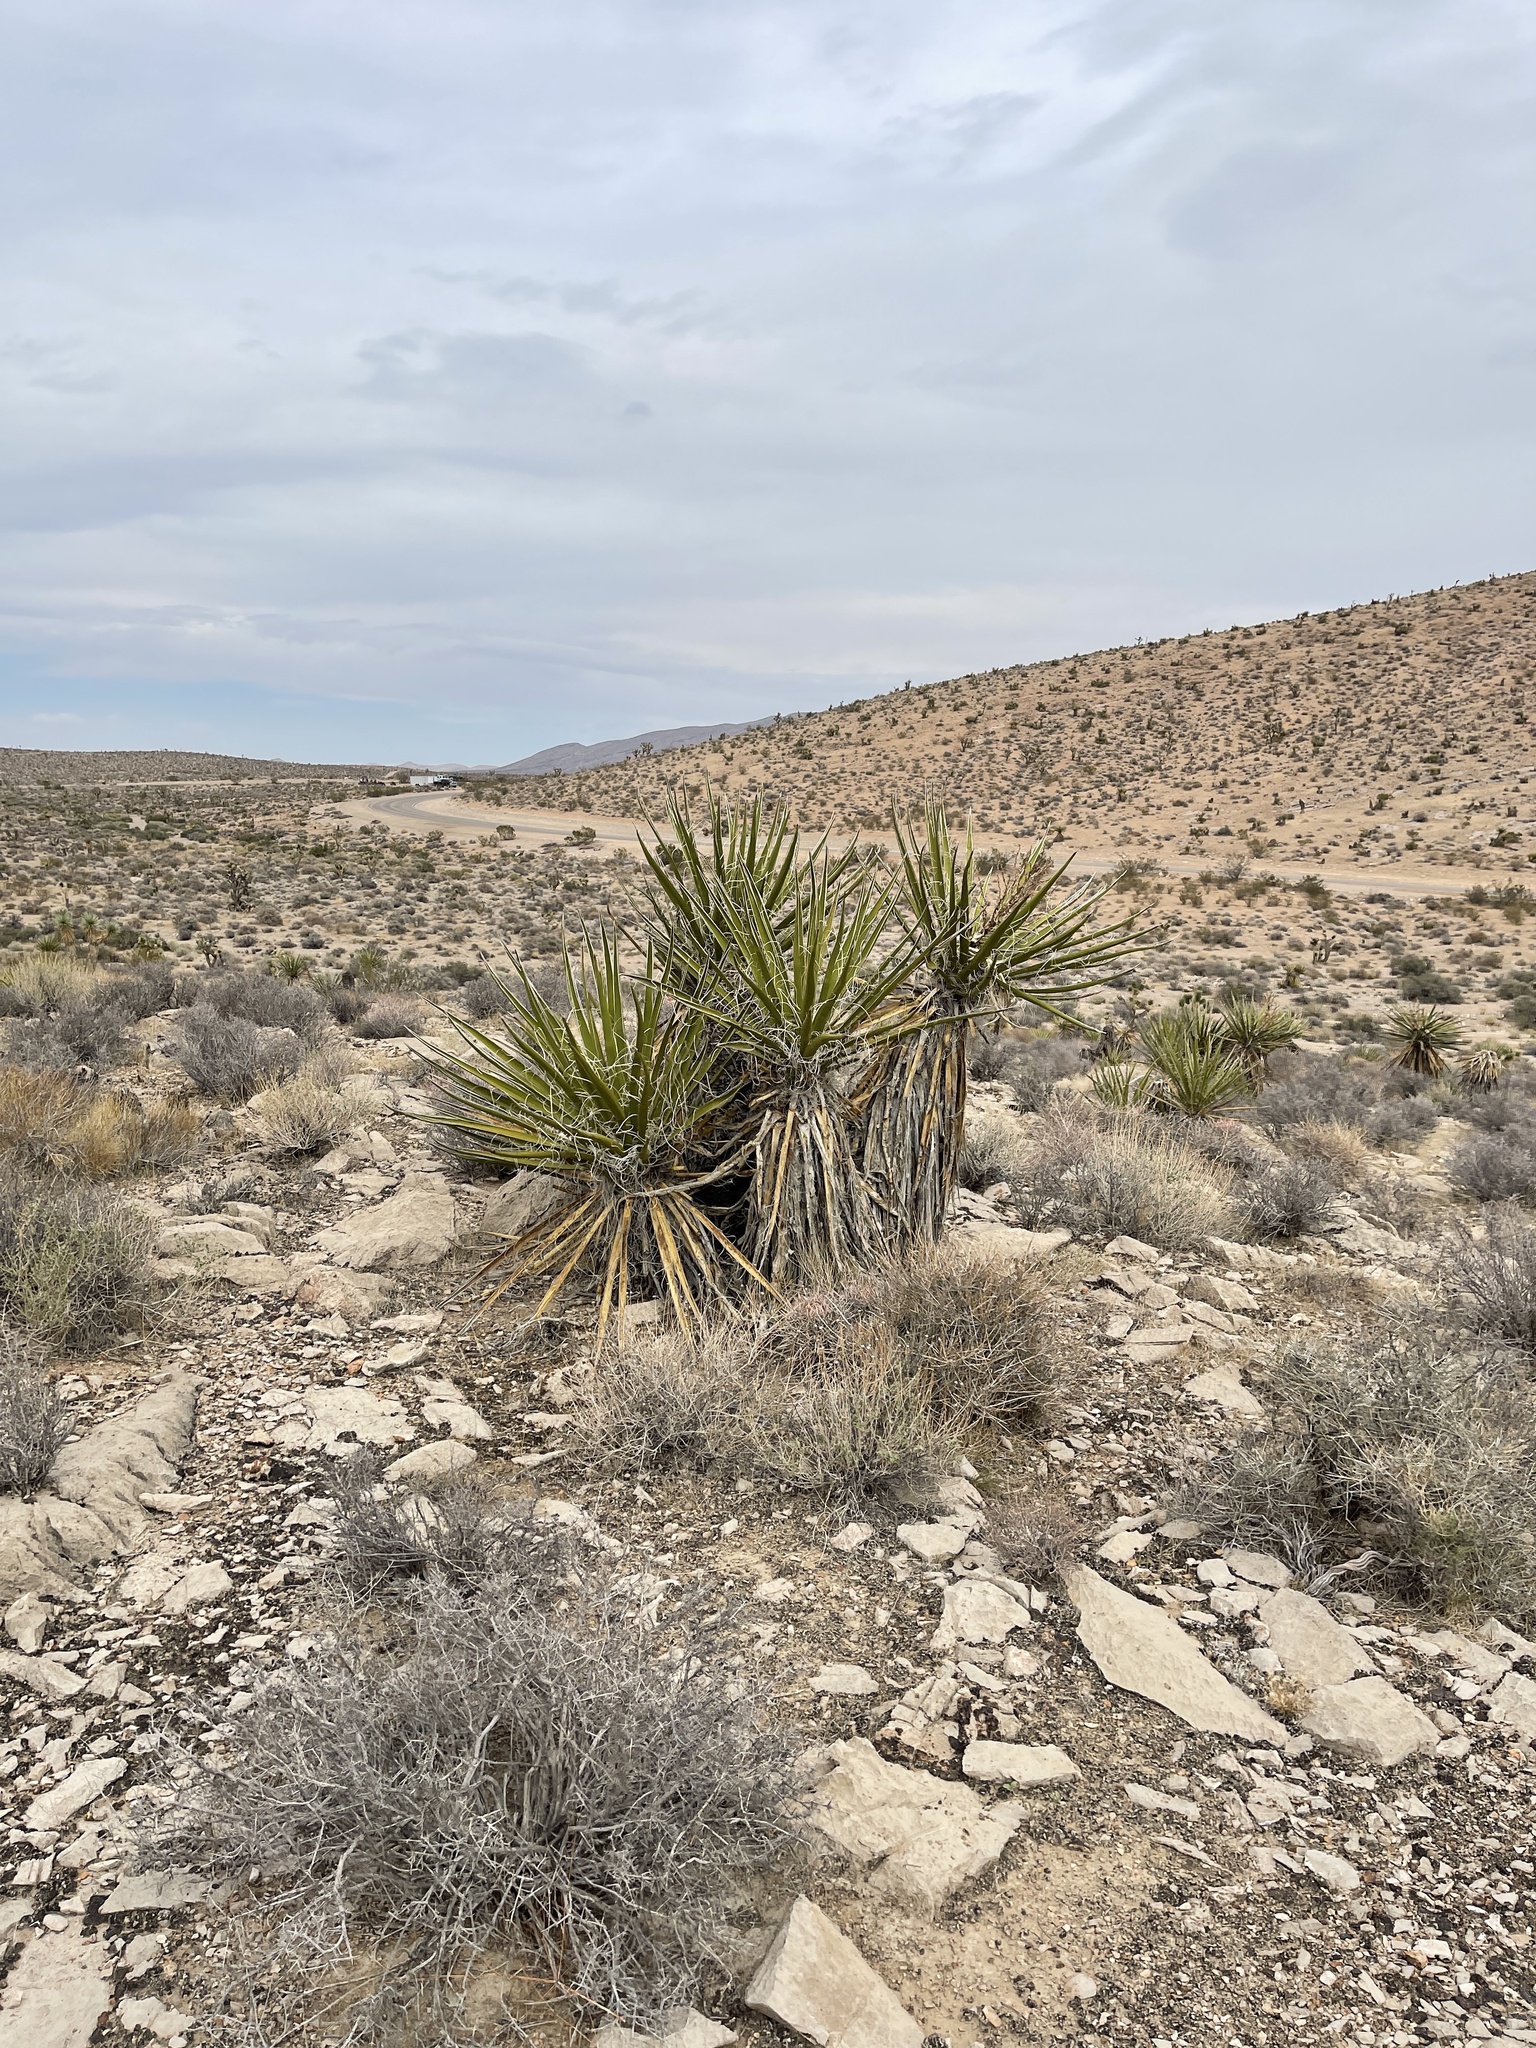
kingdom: Plantae
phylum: Tracheophyta
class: Liliopsida
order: Asparagales
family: Asparagaceae
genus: Yucca
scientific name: Yucca schidigera
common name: Mojave yucca
